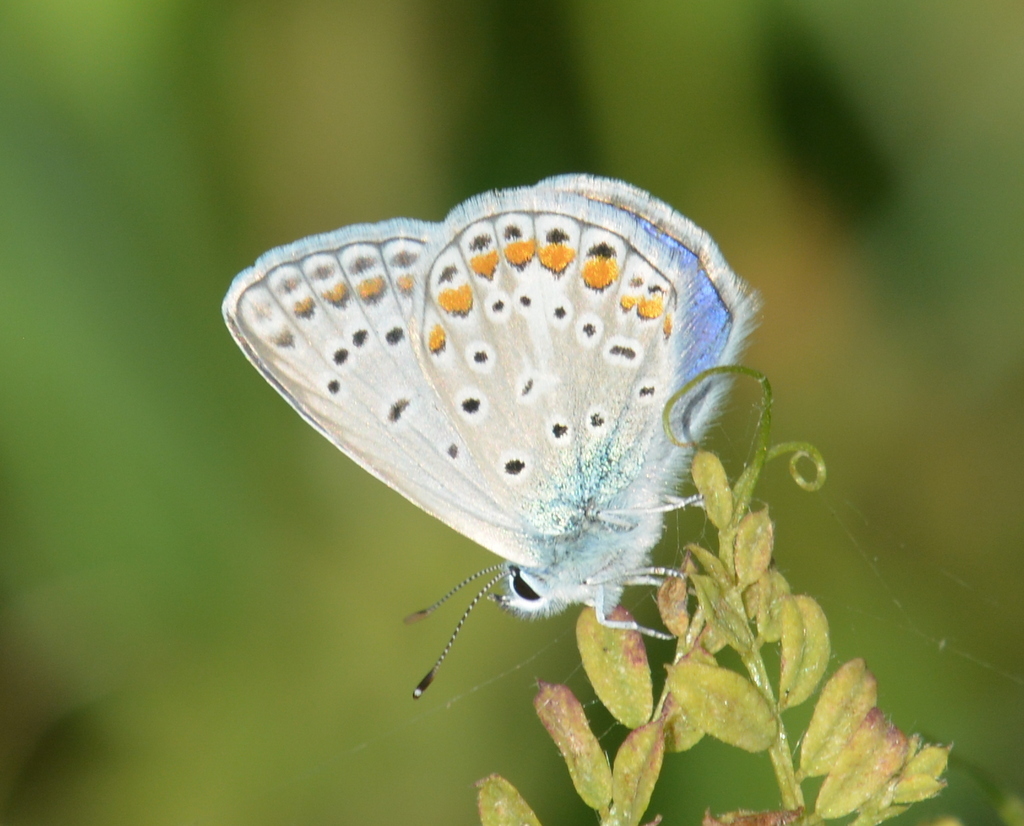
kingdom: Animalia
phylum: Arthropoda
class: Insecta
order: Lepidoptera
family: Lycaenidae
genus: Polyommatus
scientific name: Polyommatus icarus
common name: Common blue
